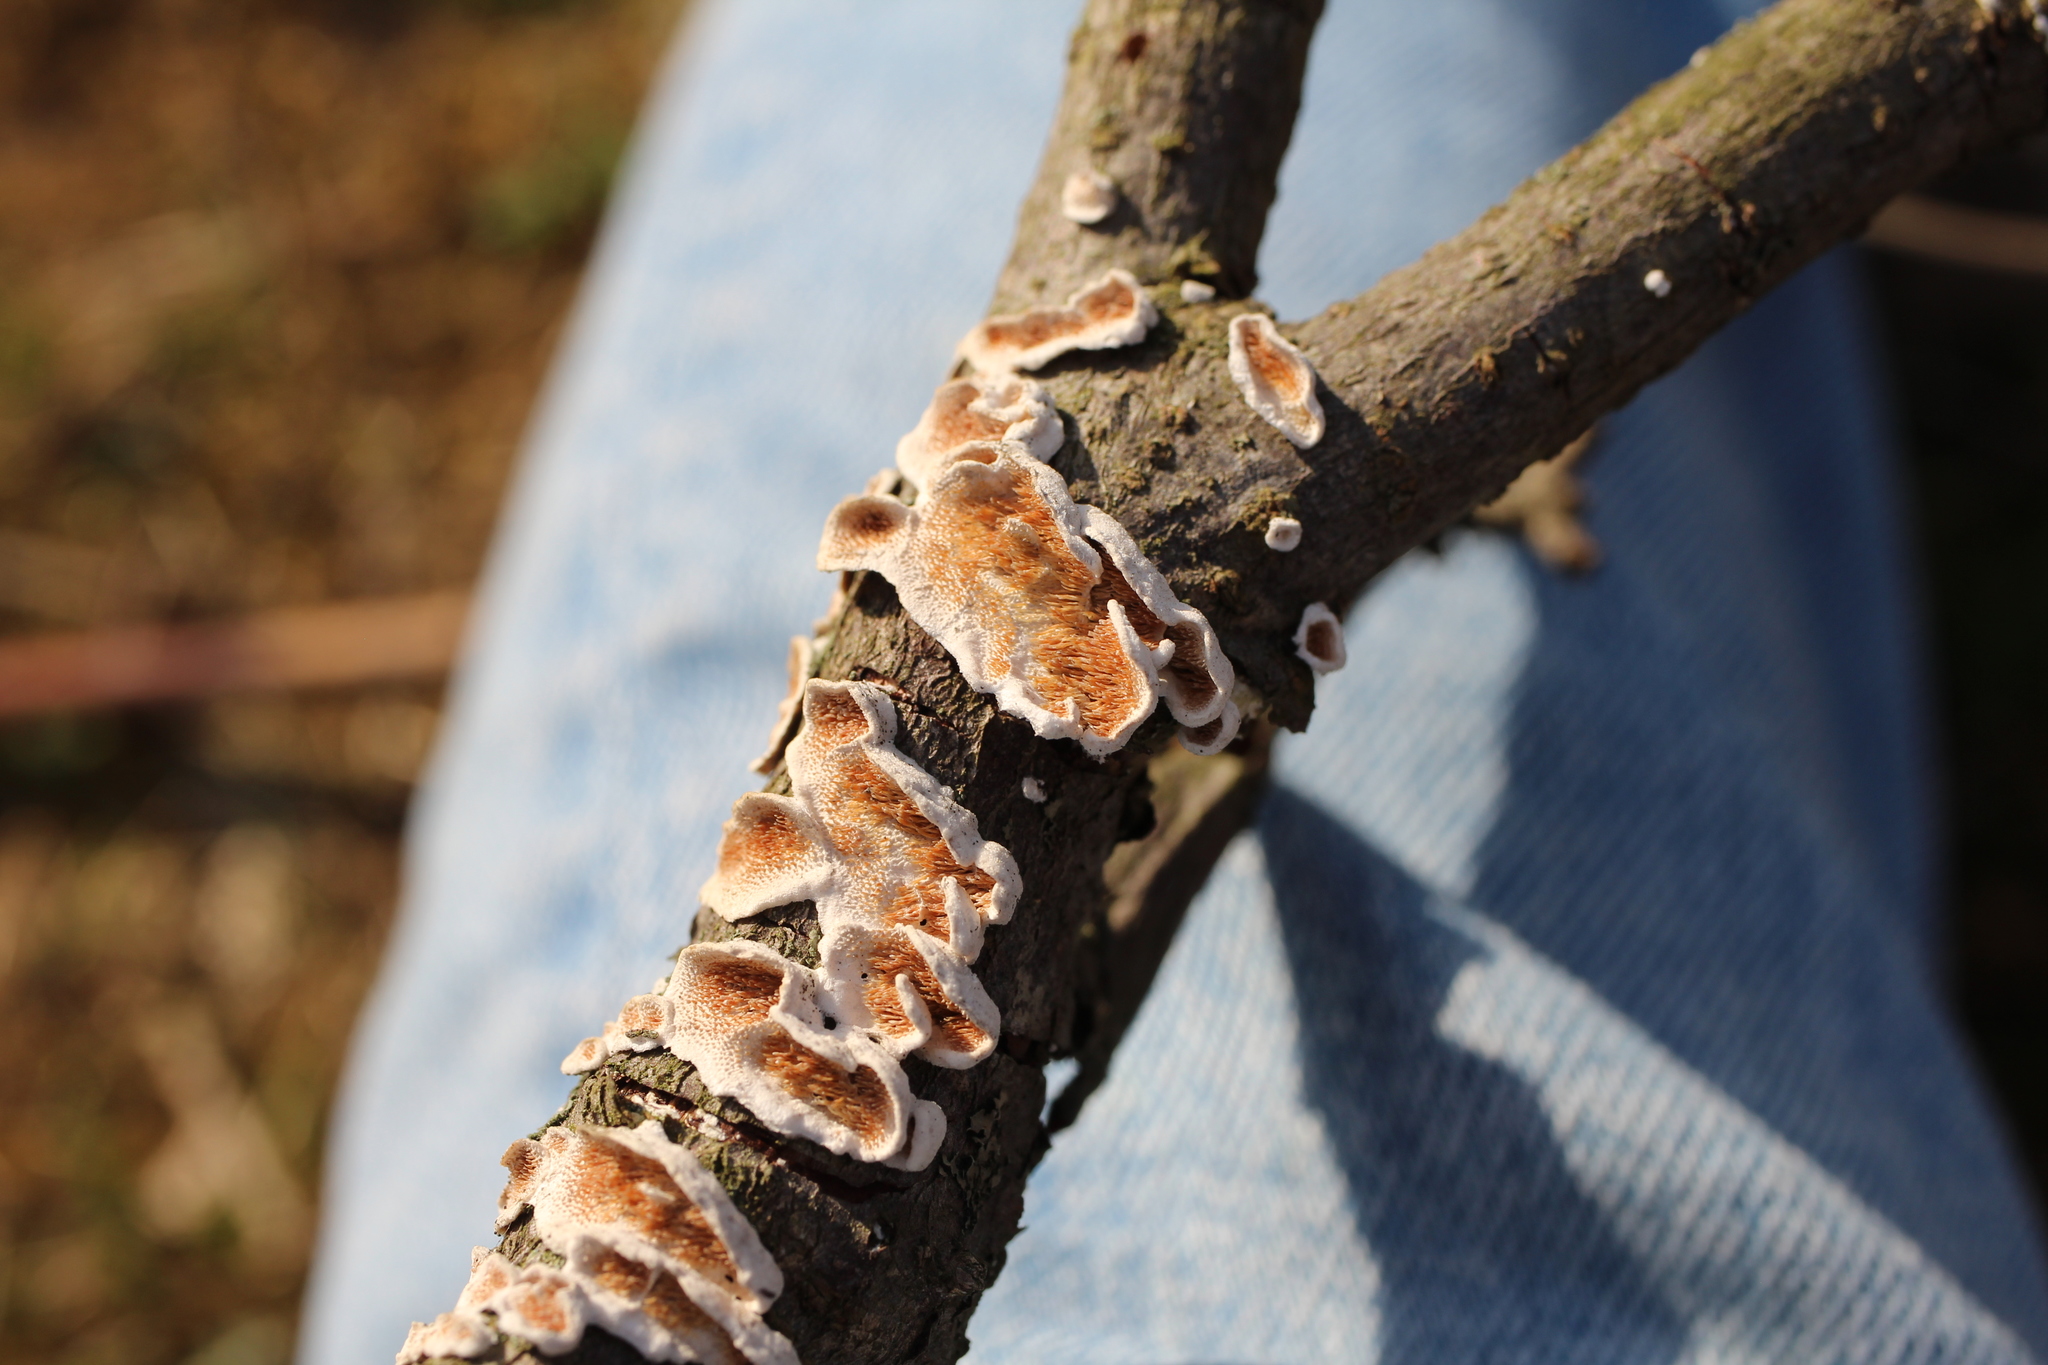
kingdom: Fungi
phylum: Basidiomycota
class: Agaricomycetes
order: Polyporales
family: Steccherinaceae
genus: Steccherinum
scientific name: Steccherinum ochraceum
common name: Ochre spreading tooth
